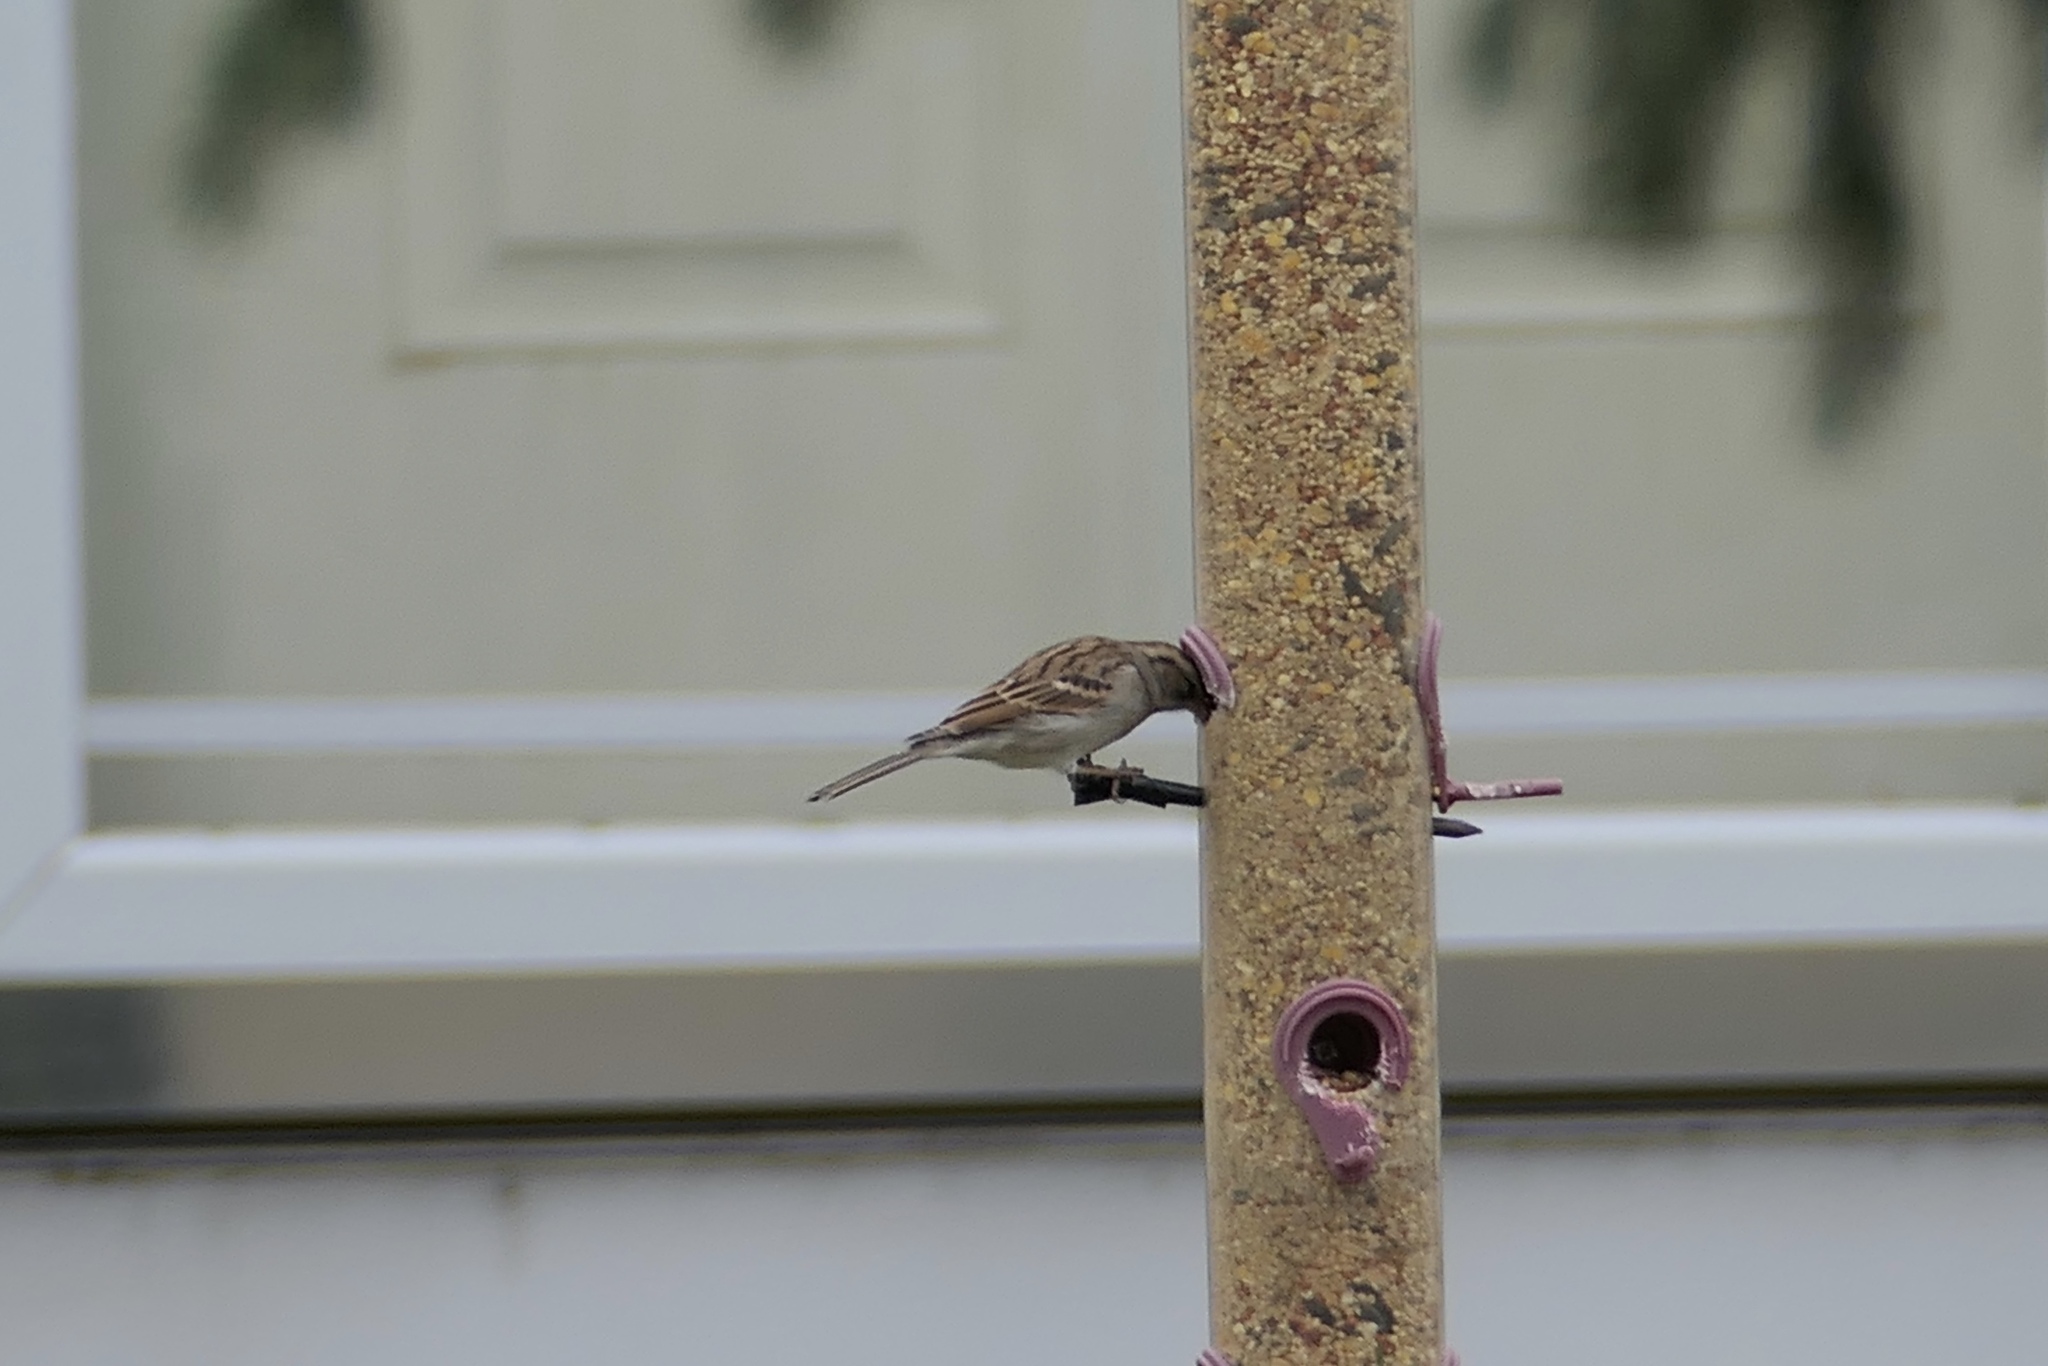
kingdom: Animalia
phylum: Chordata
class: Aves
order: Passeriformes
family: Passerellidae
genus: Spizella
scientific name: Spizella passerina
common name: Chipping sparrow
